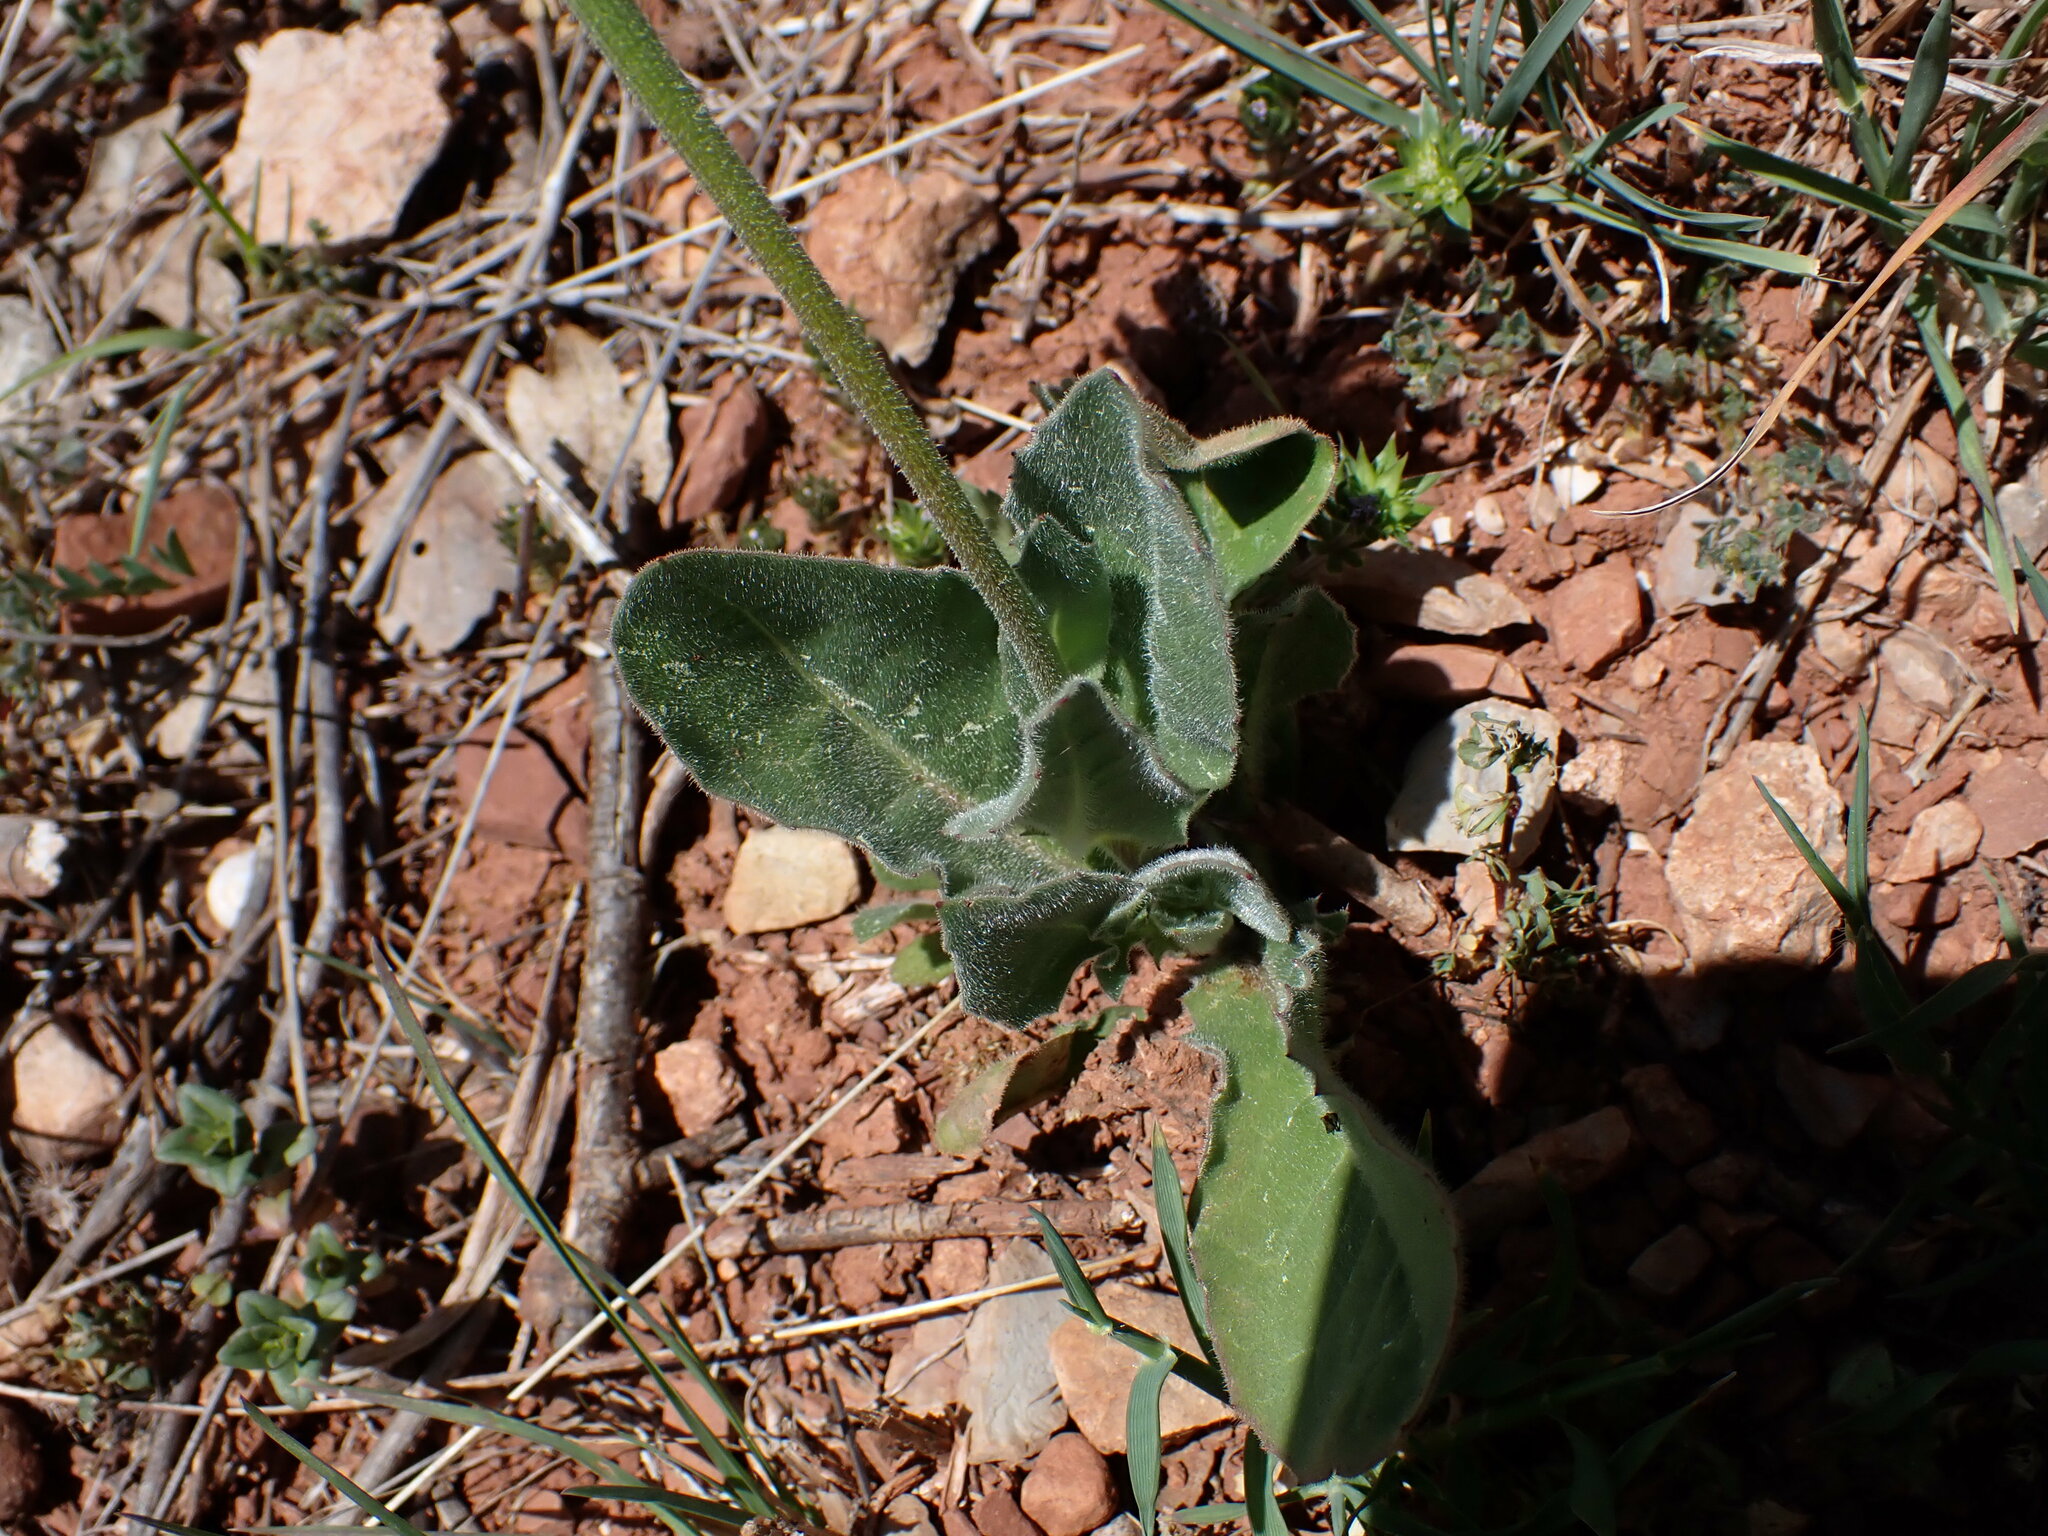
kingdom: Plantae
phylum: Tracheophyta
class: Magnoliopsida
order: Asterales
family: Asteraceae
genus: Urospermum
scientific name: Urospermum dalechampii
